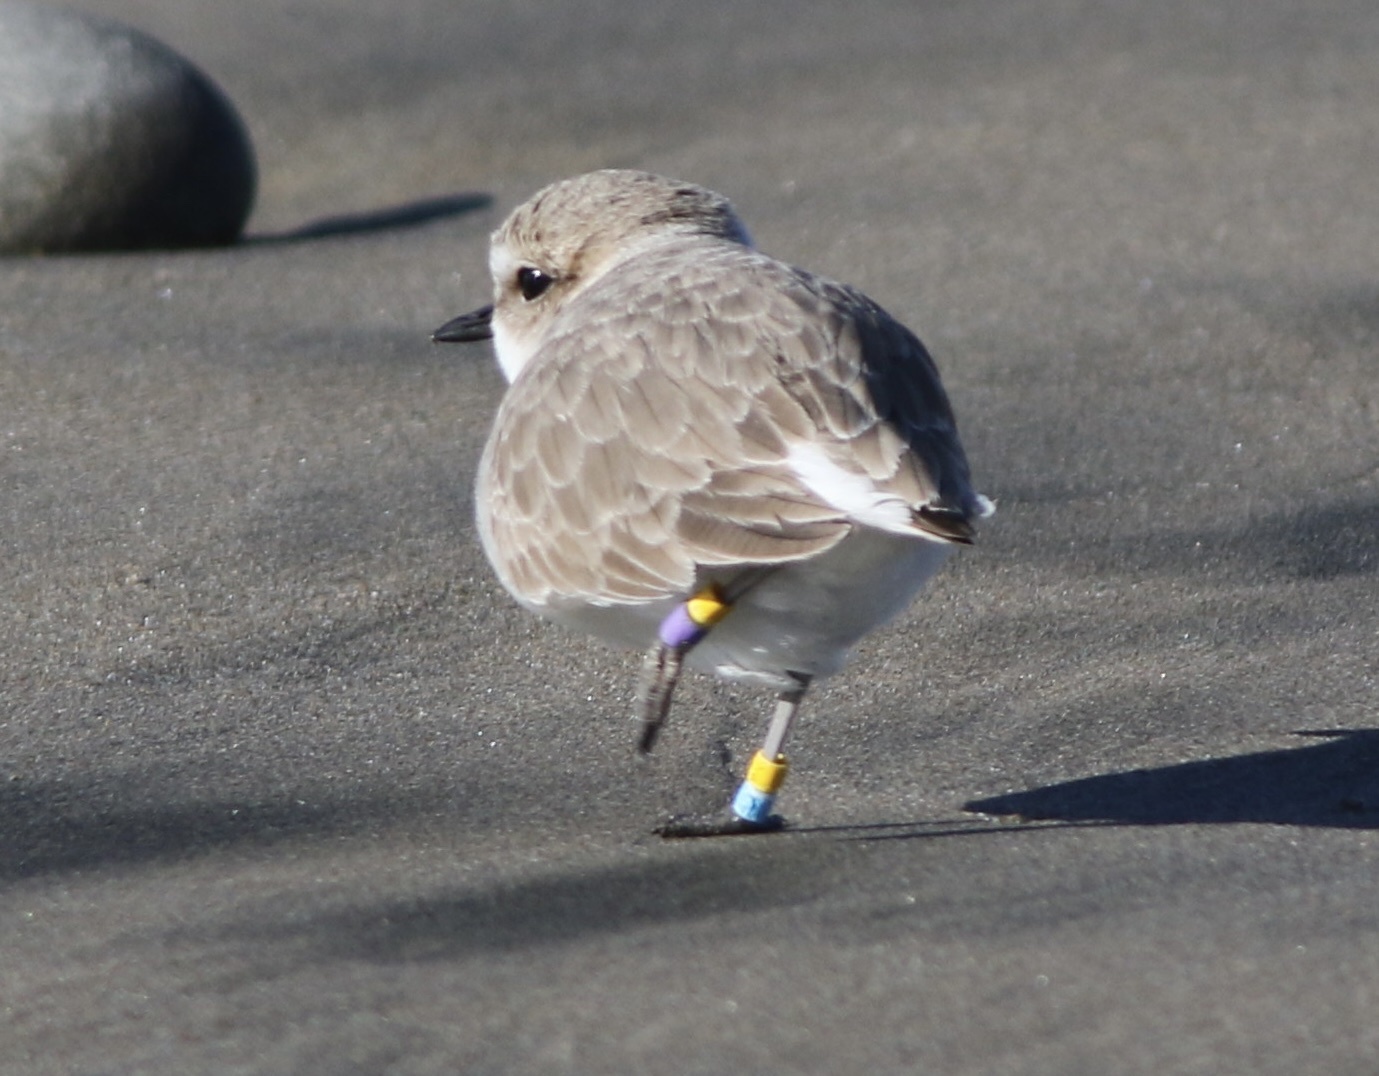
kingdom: Animalia
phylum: Chordata
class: Aves
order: Charadriiformes
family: Charadriidae
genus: Anarhynchus
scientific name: Anarhynchus
